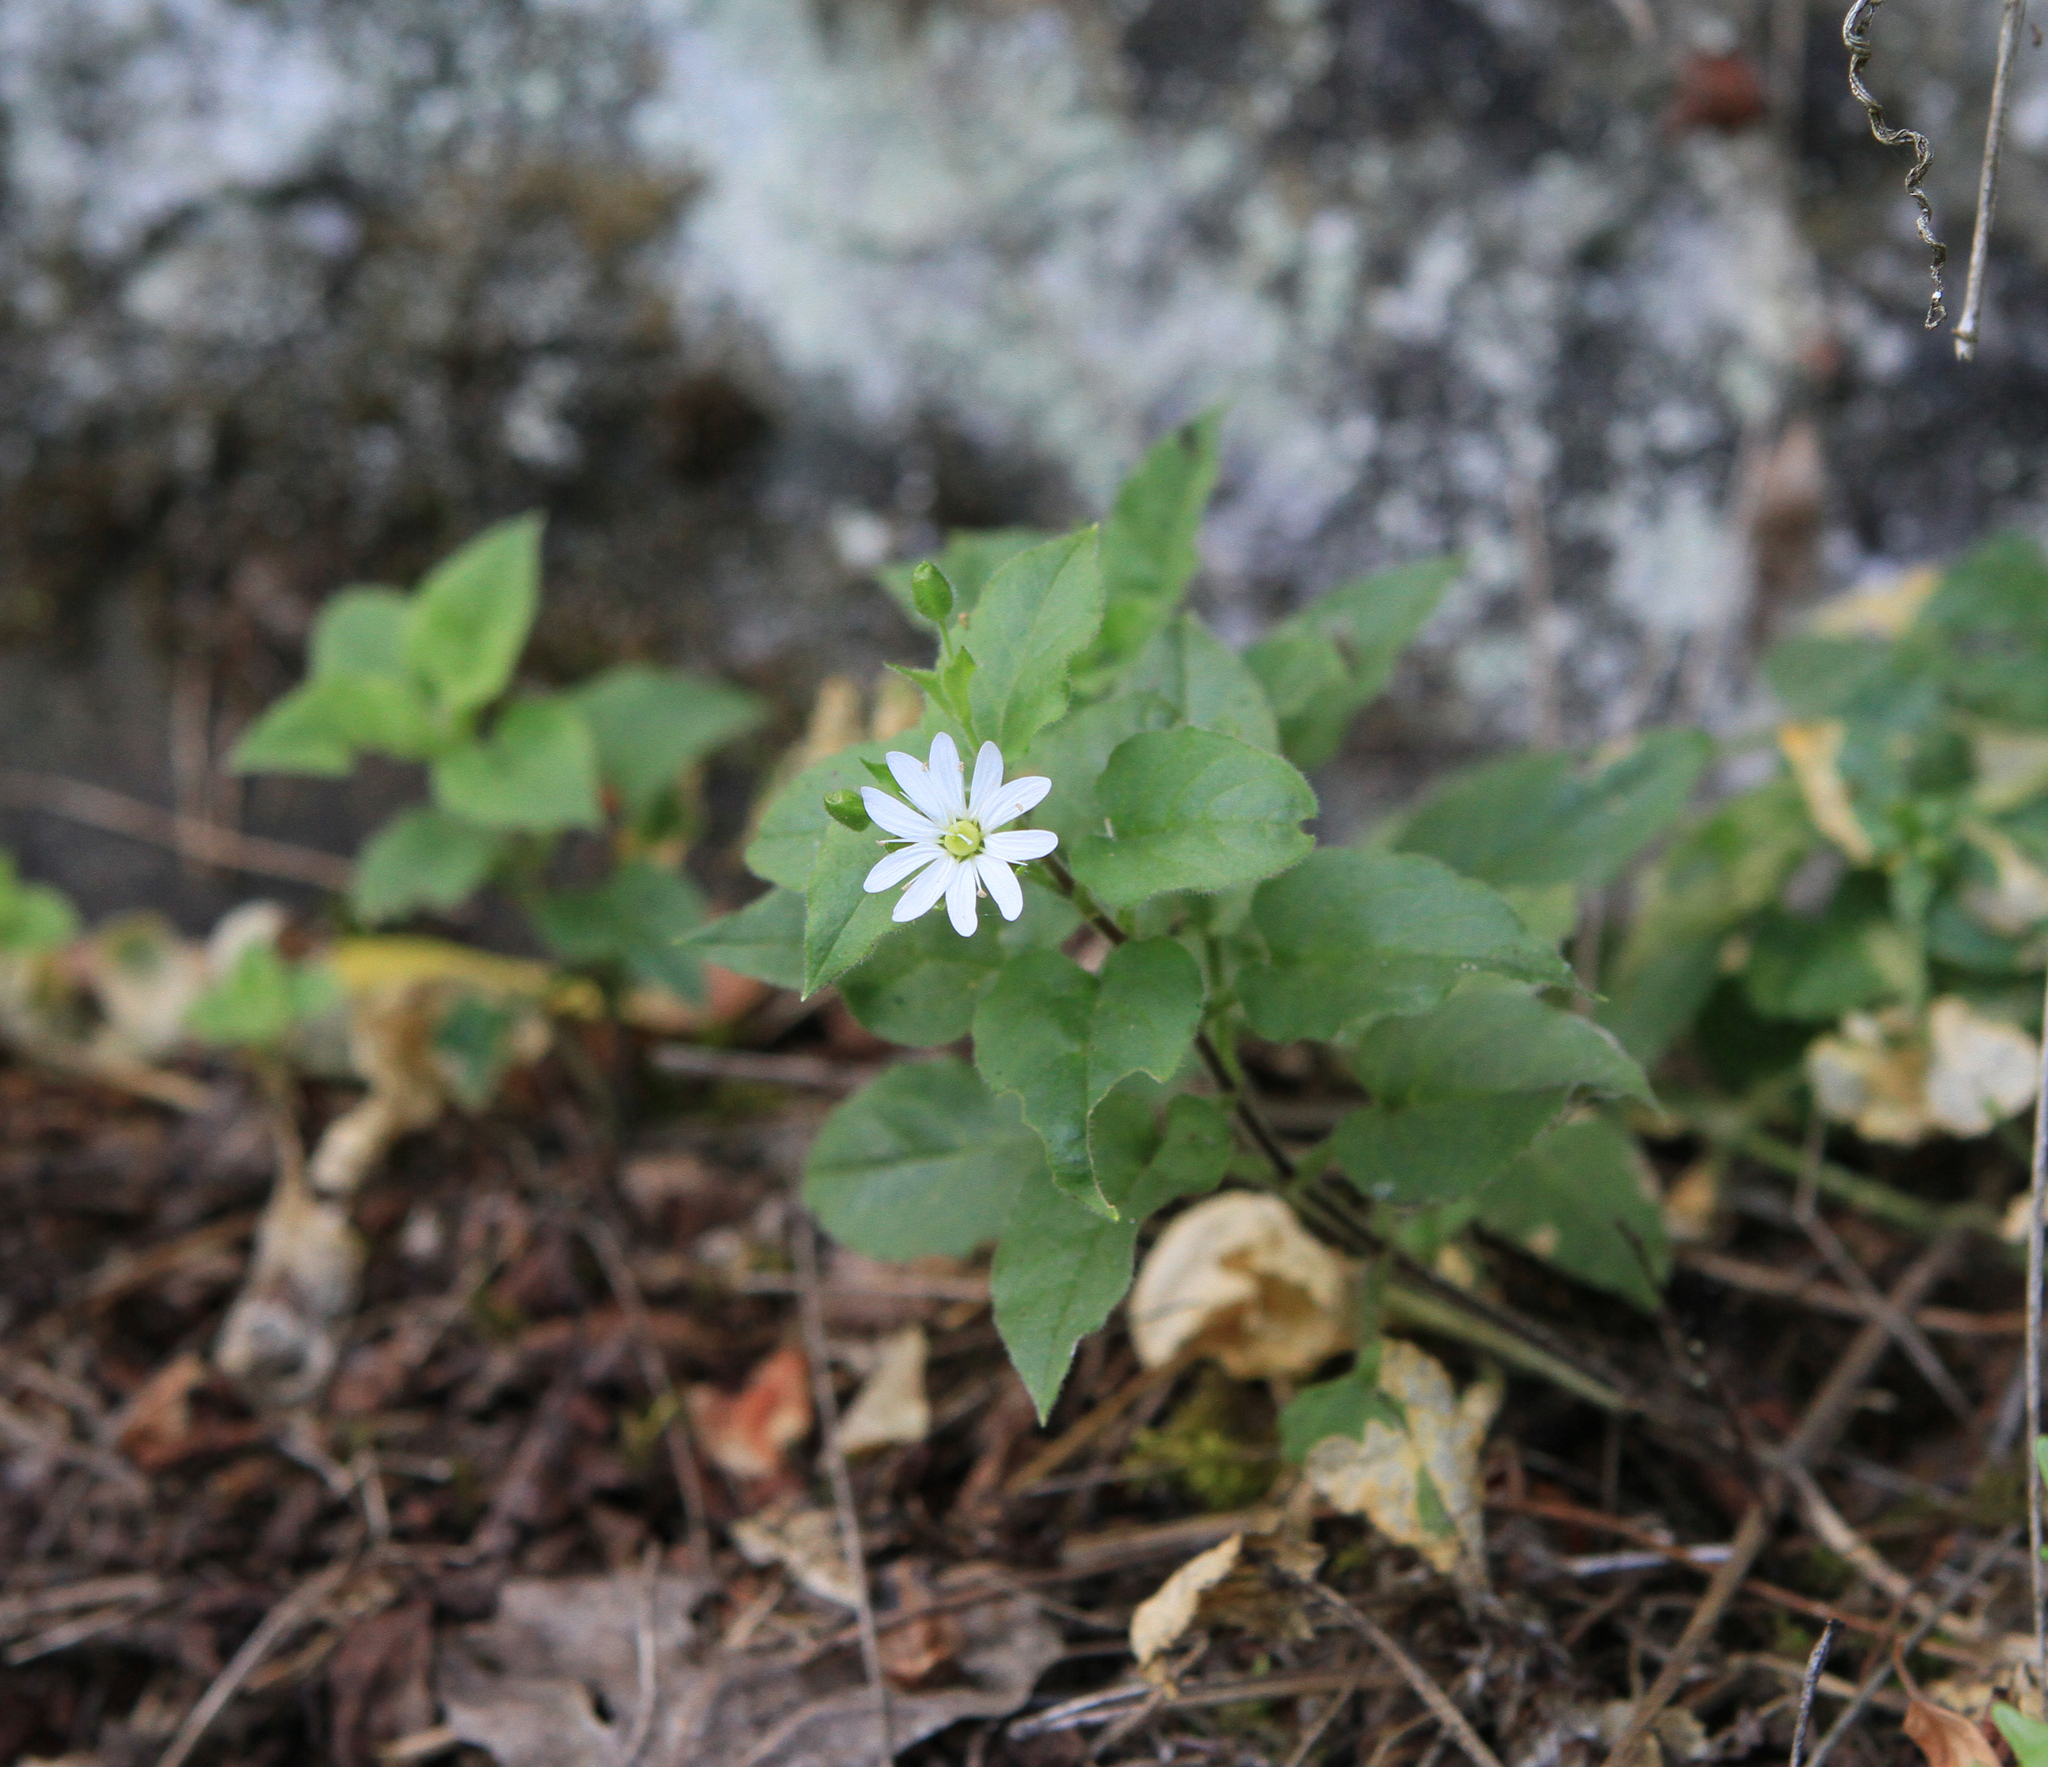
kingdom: Plantae
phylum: Tracheophyta
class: Magnoliopsida
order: Caryophyllales
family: Caryophyllaceae
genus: Stellaria
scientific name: Stellaria bungeana
